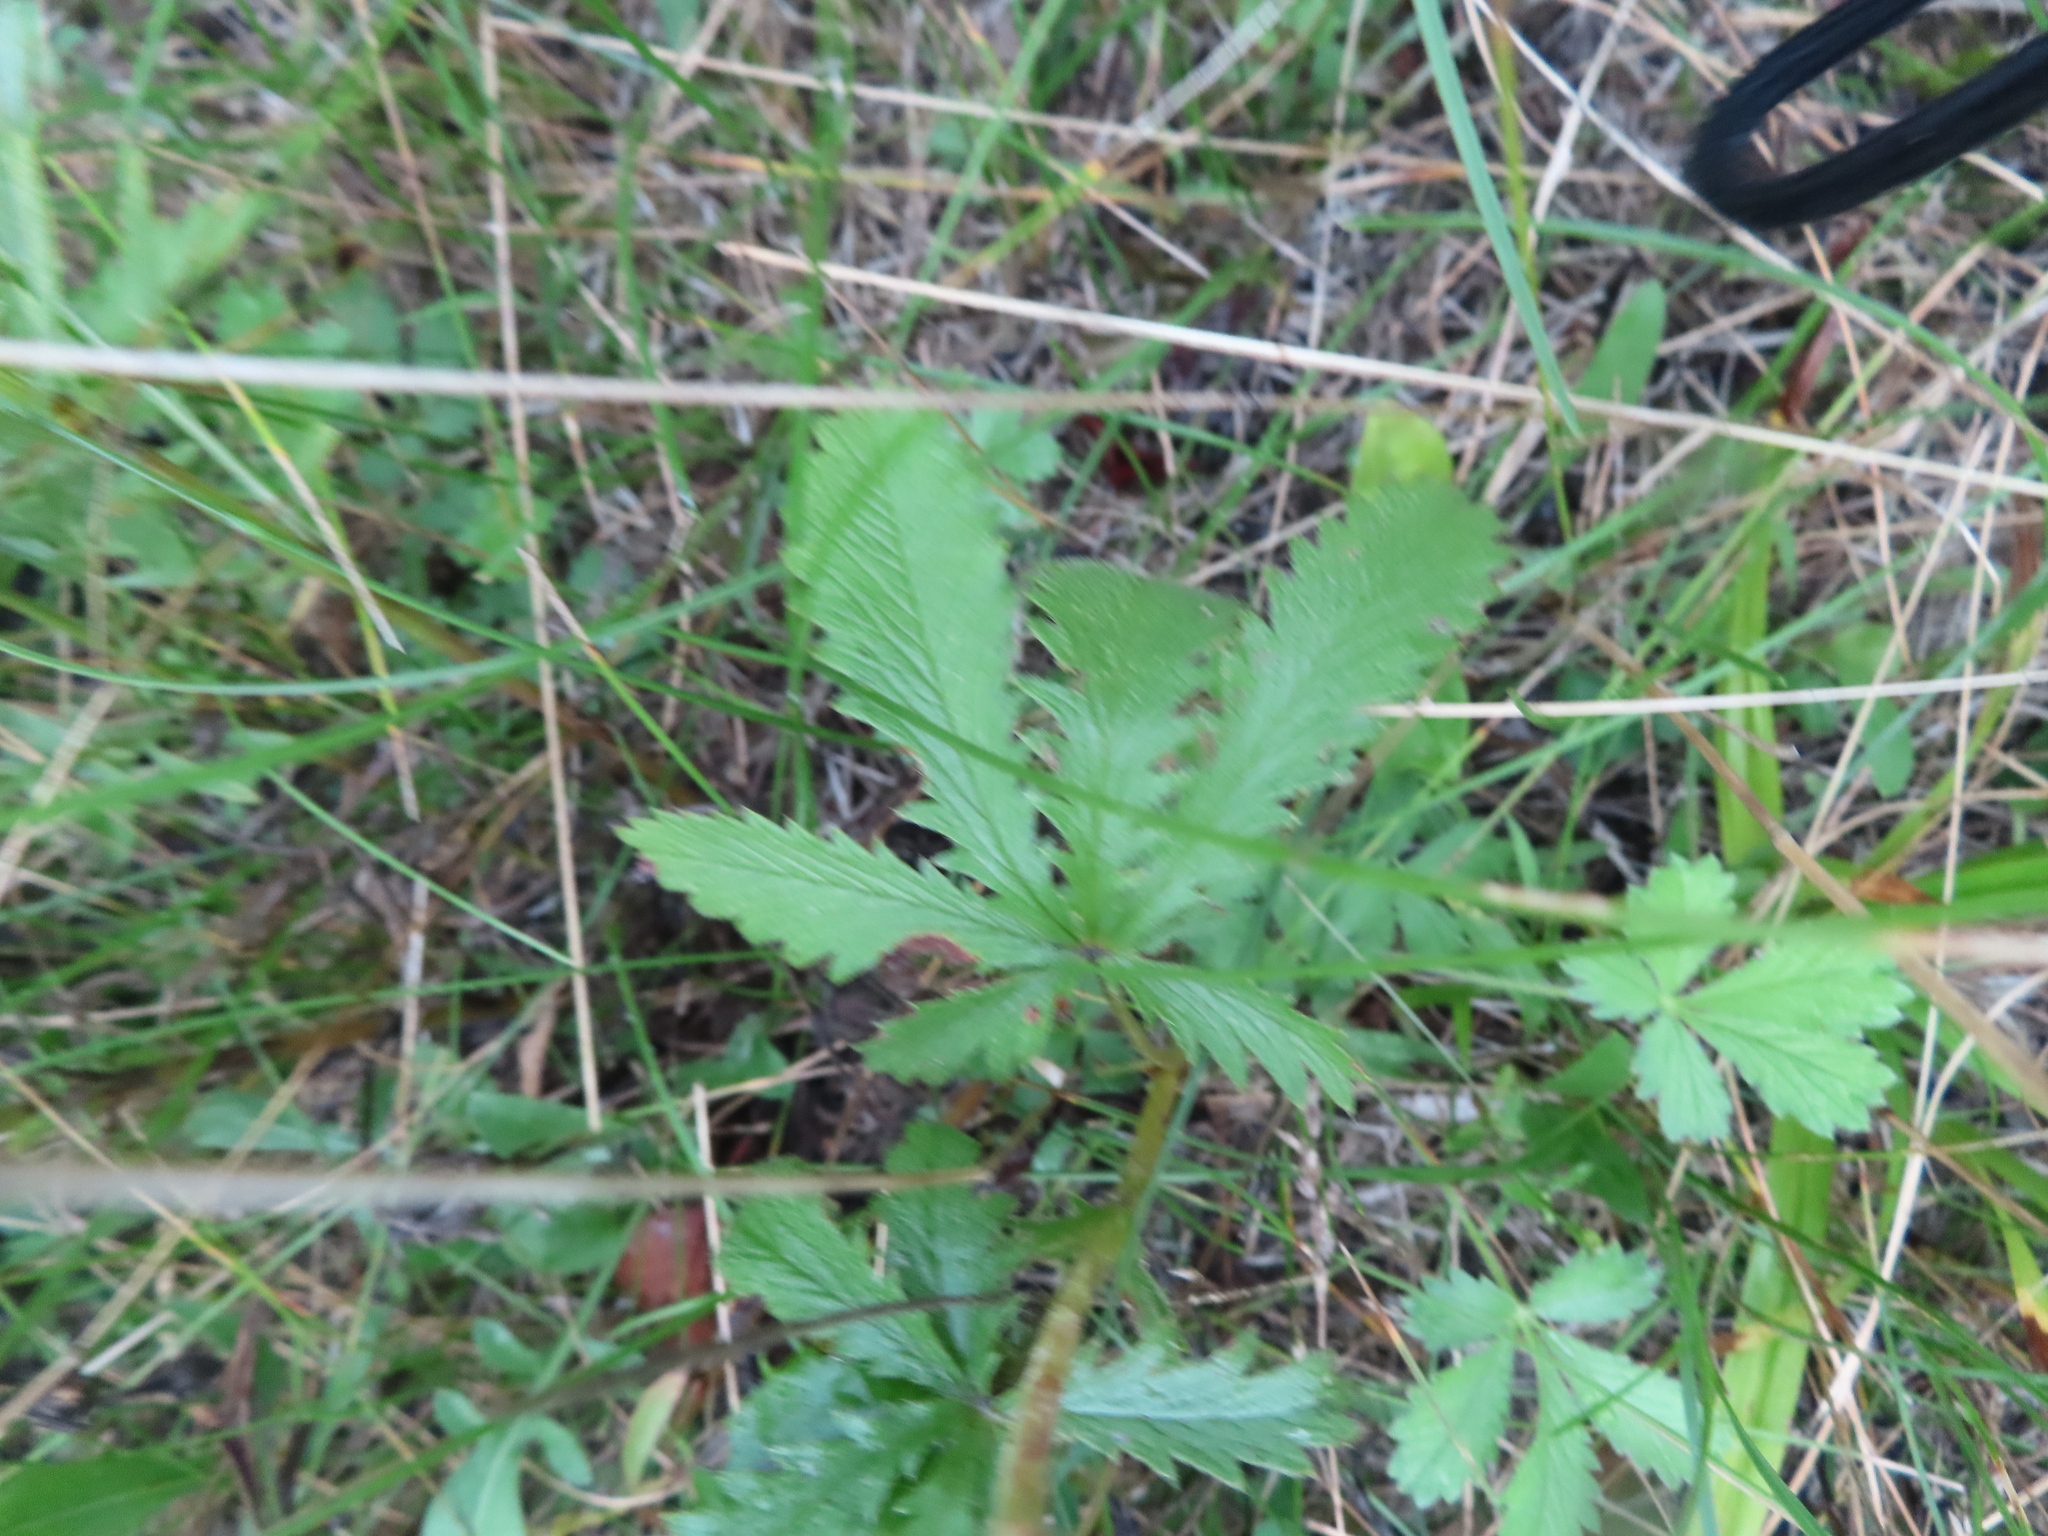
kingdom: Plantae
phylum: Tracheophyta
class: Magnoliopsida
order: Rosales
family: Rosaceae
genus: Potentilla
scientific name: Potentilla recta
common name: Sulphur cinquefoil
